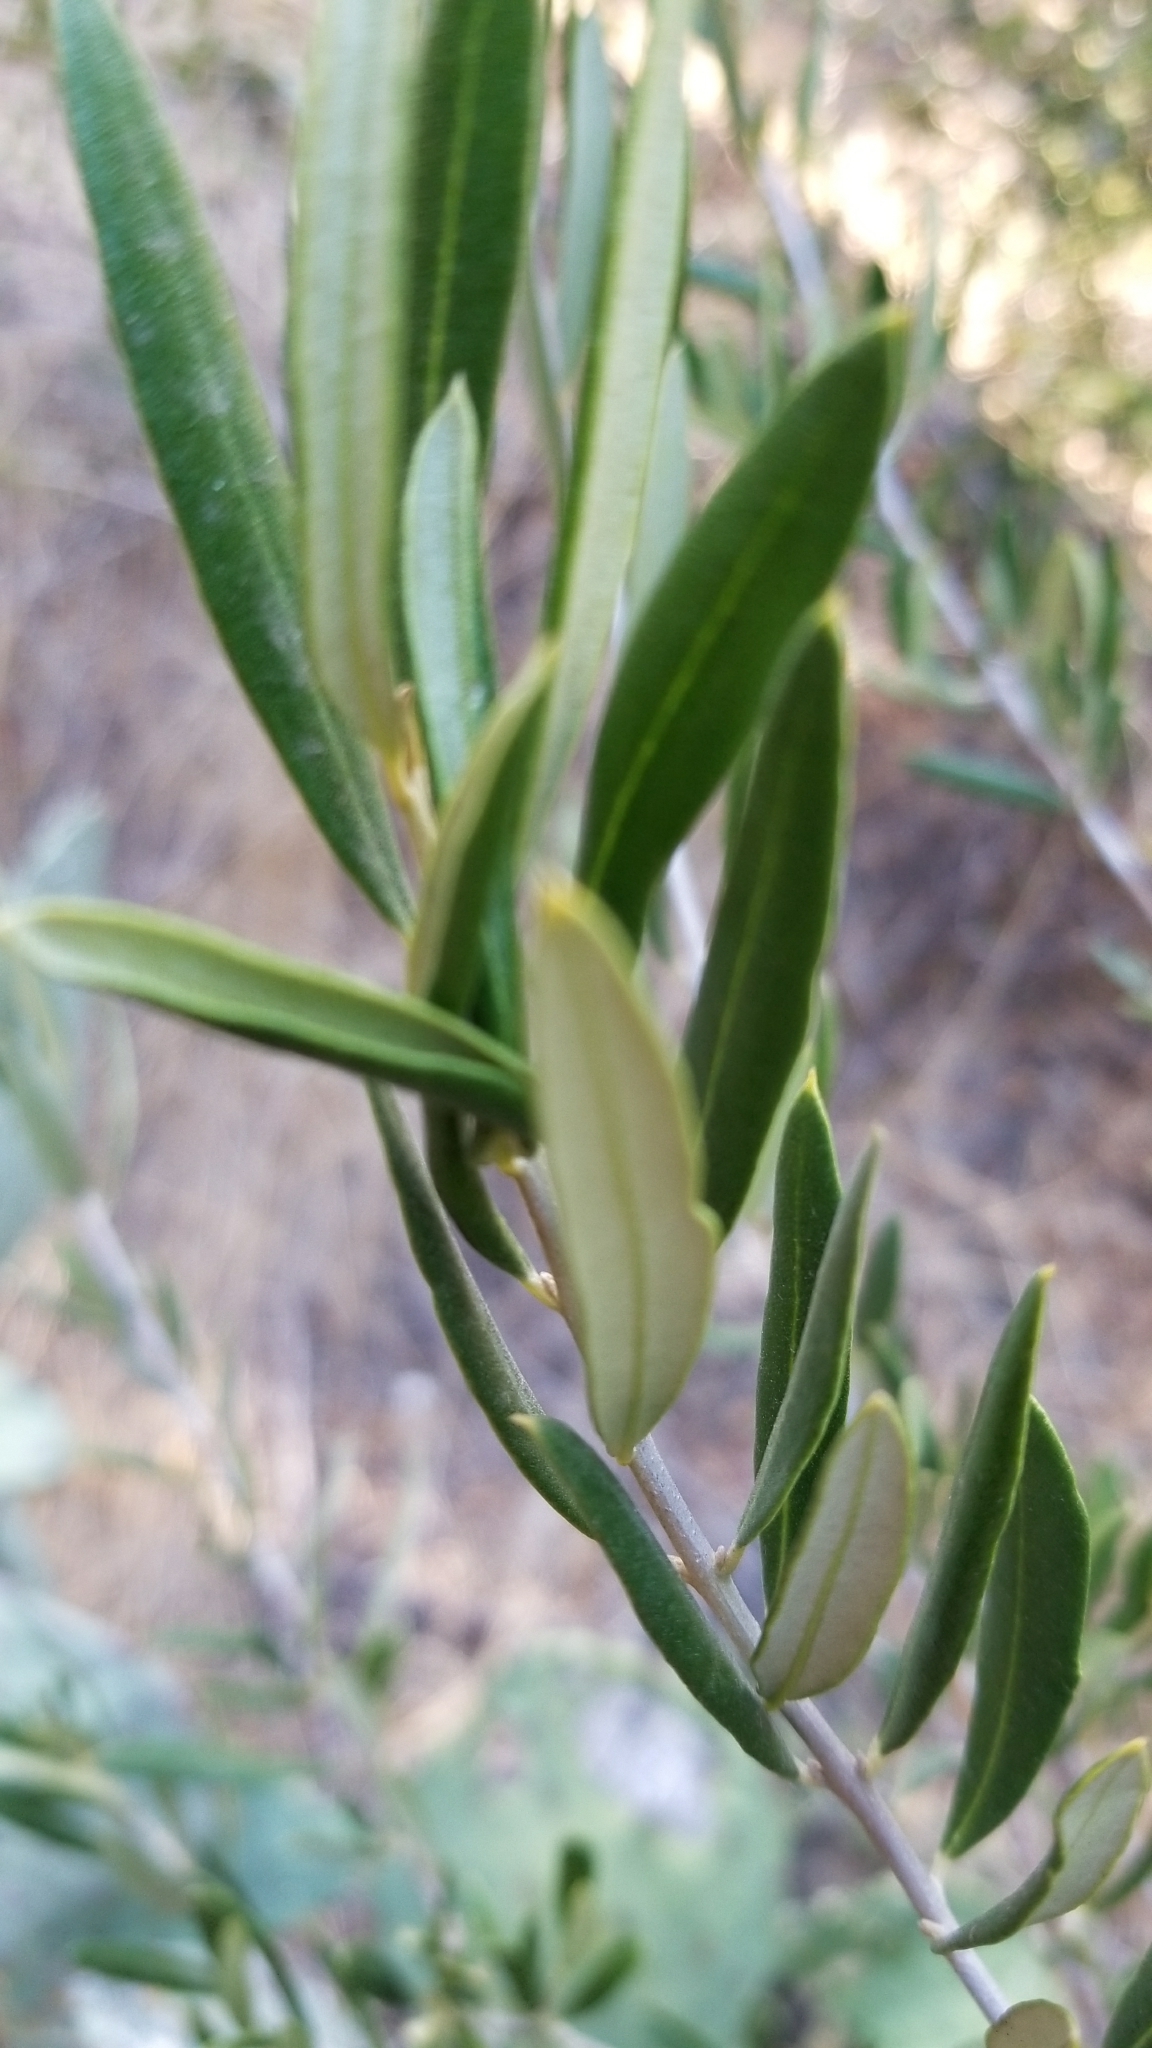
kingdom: Plantae
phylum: Tracheophyta
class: Magnoliopsida
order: Lamiales
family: Oleaceae
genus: Olea
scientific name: Olea europaea
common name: Olive
